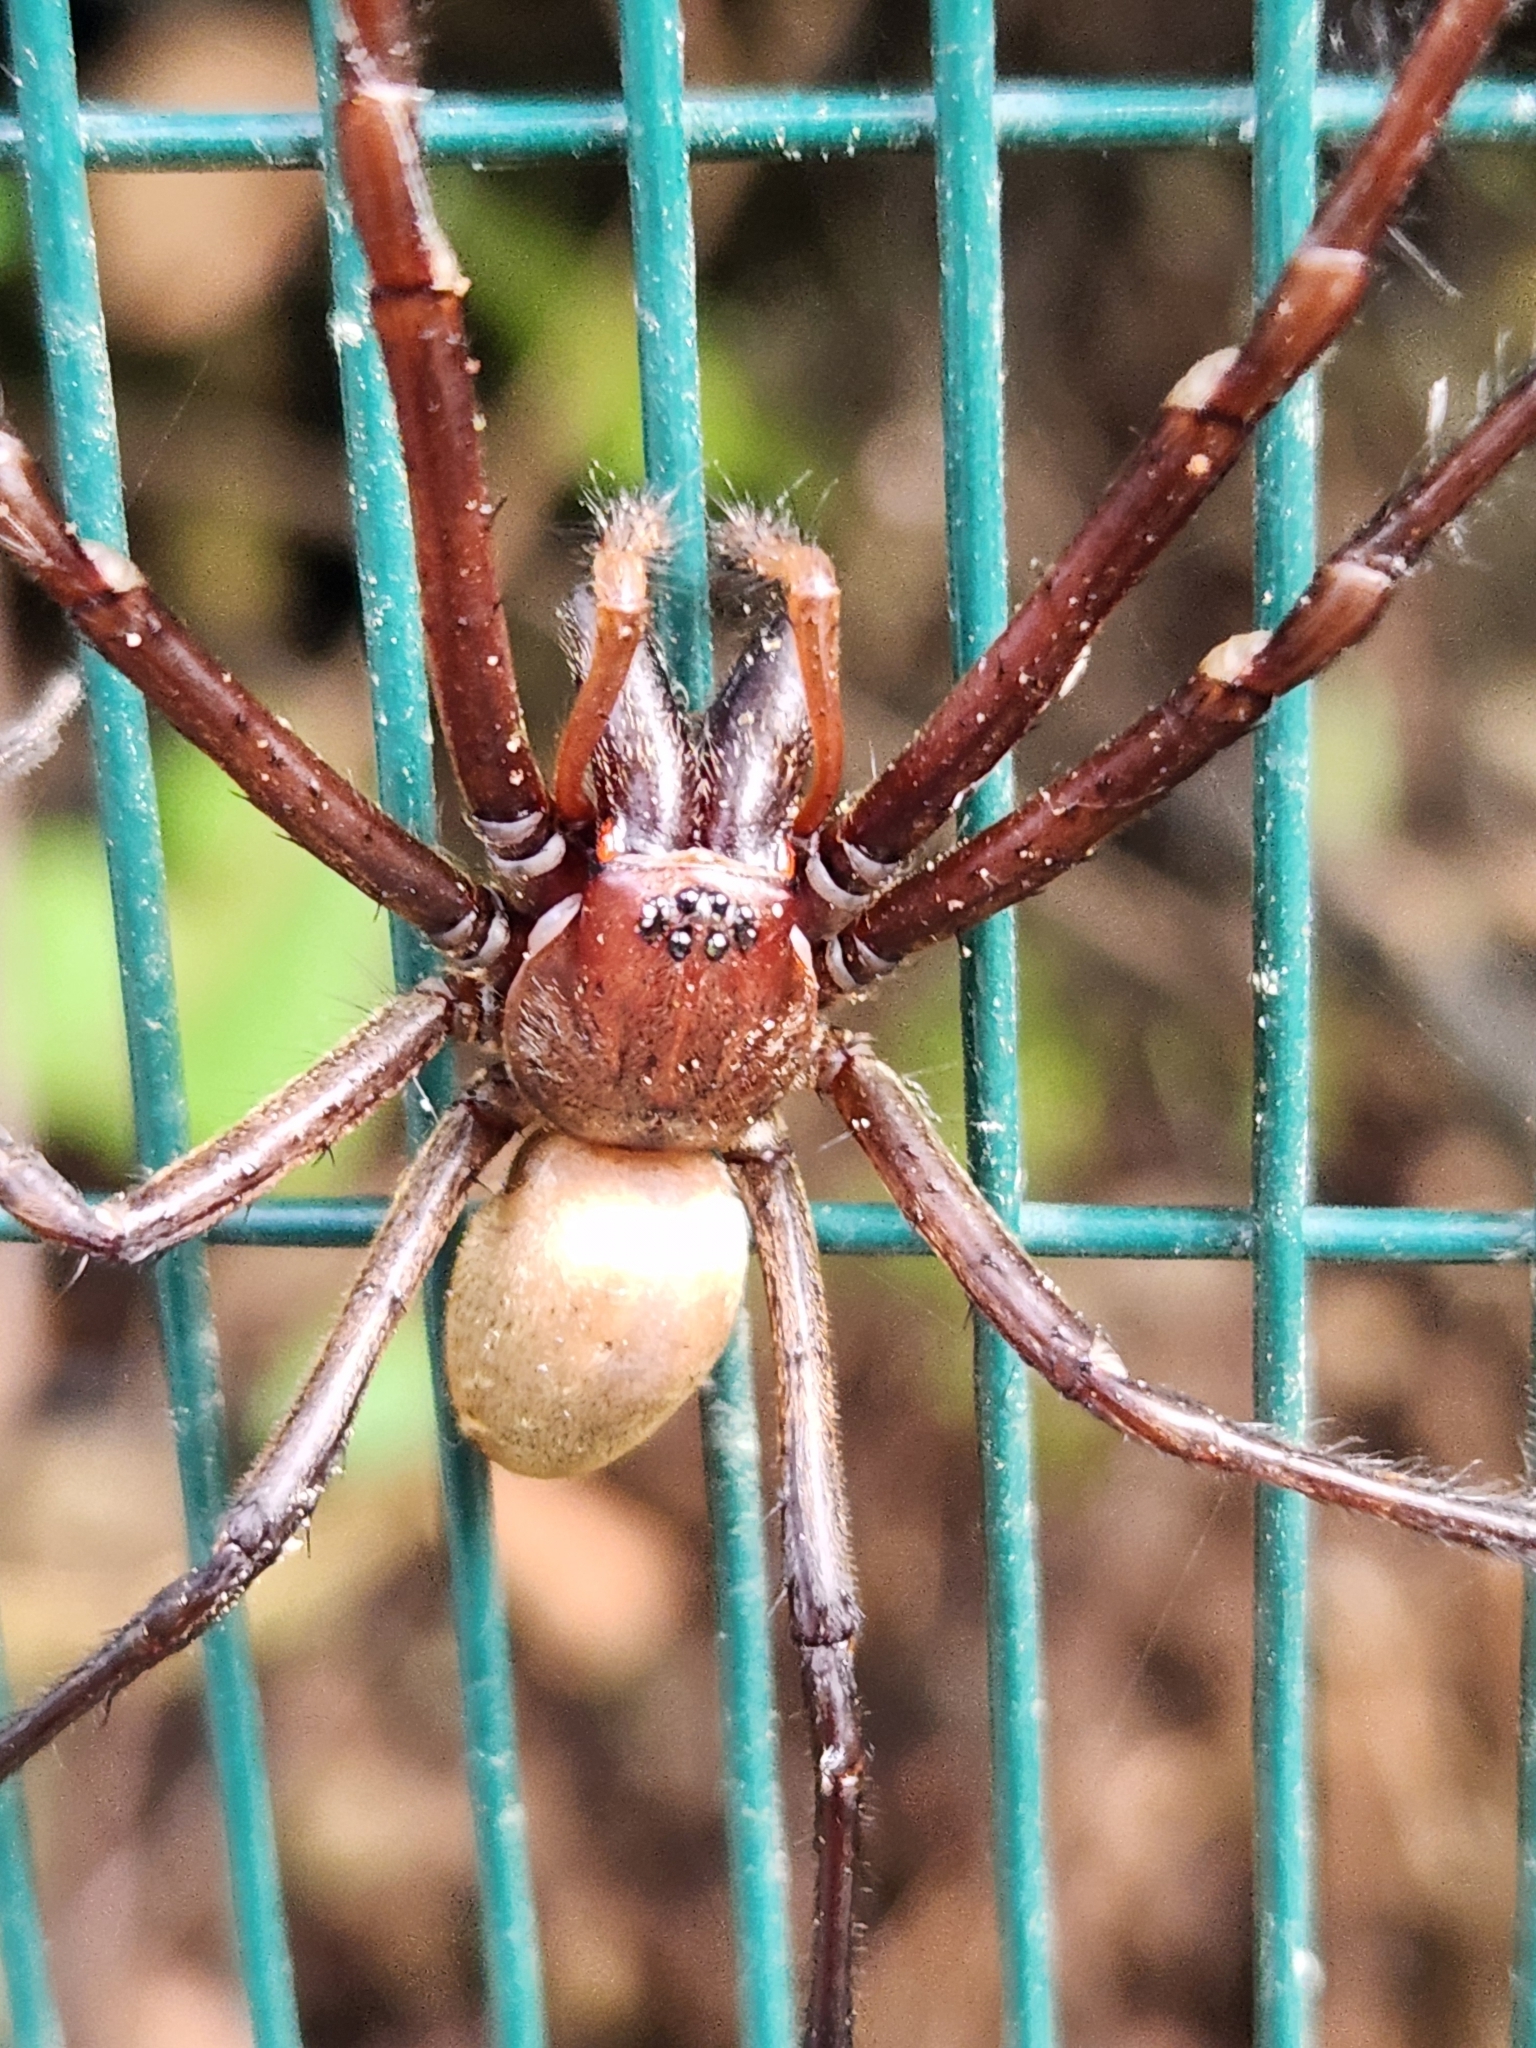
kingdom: Animalia
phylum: Arthropoda
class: Arachnida
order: Araneae
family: Desidae
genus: Cambridgea
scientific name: Cambridgea foliata
